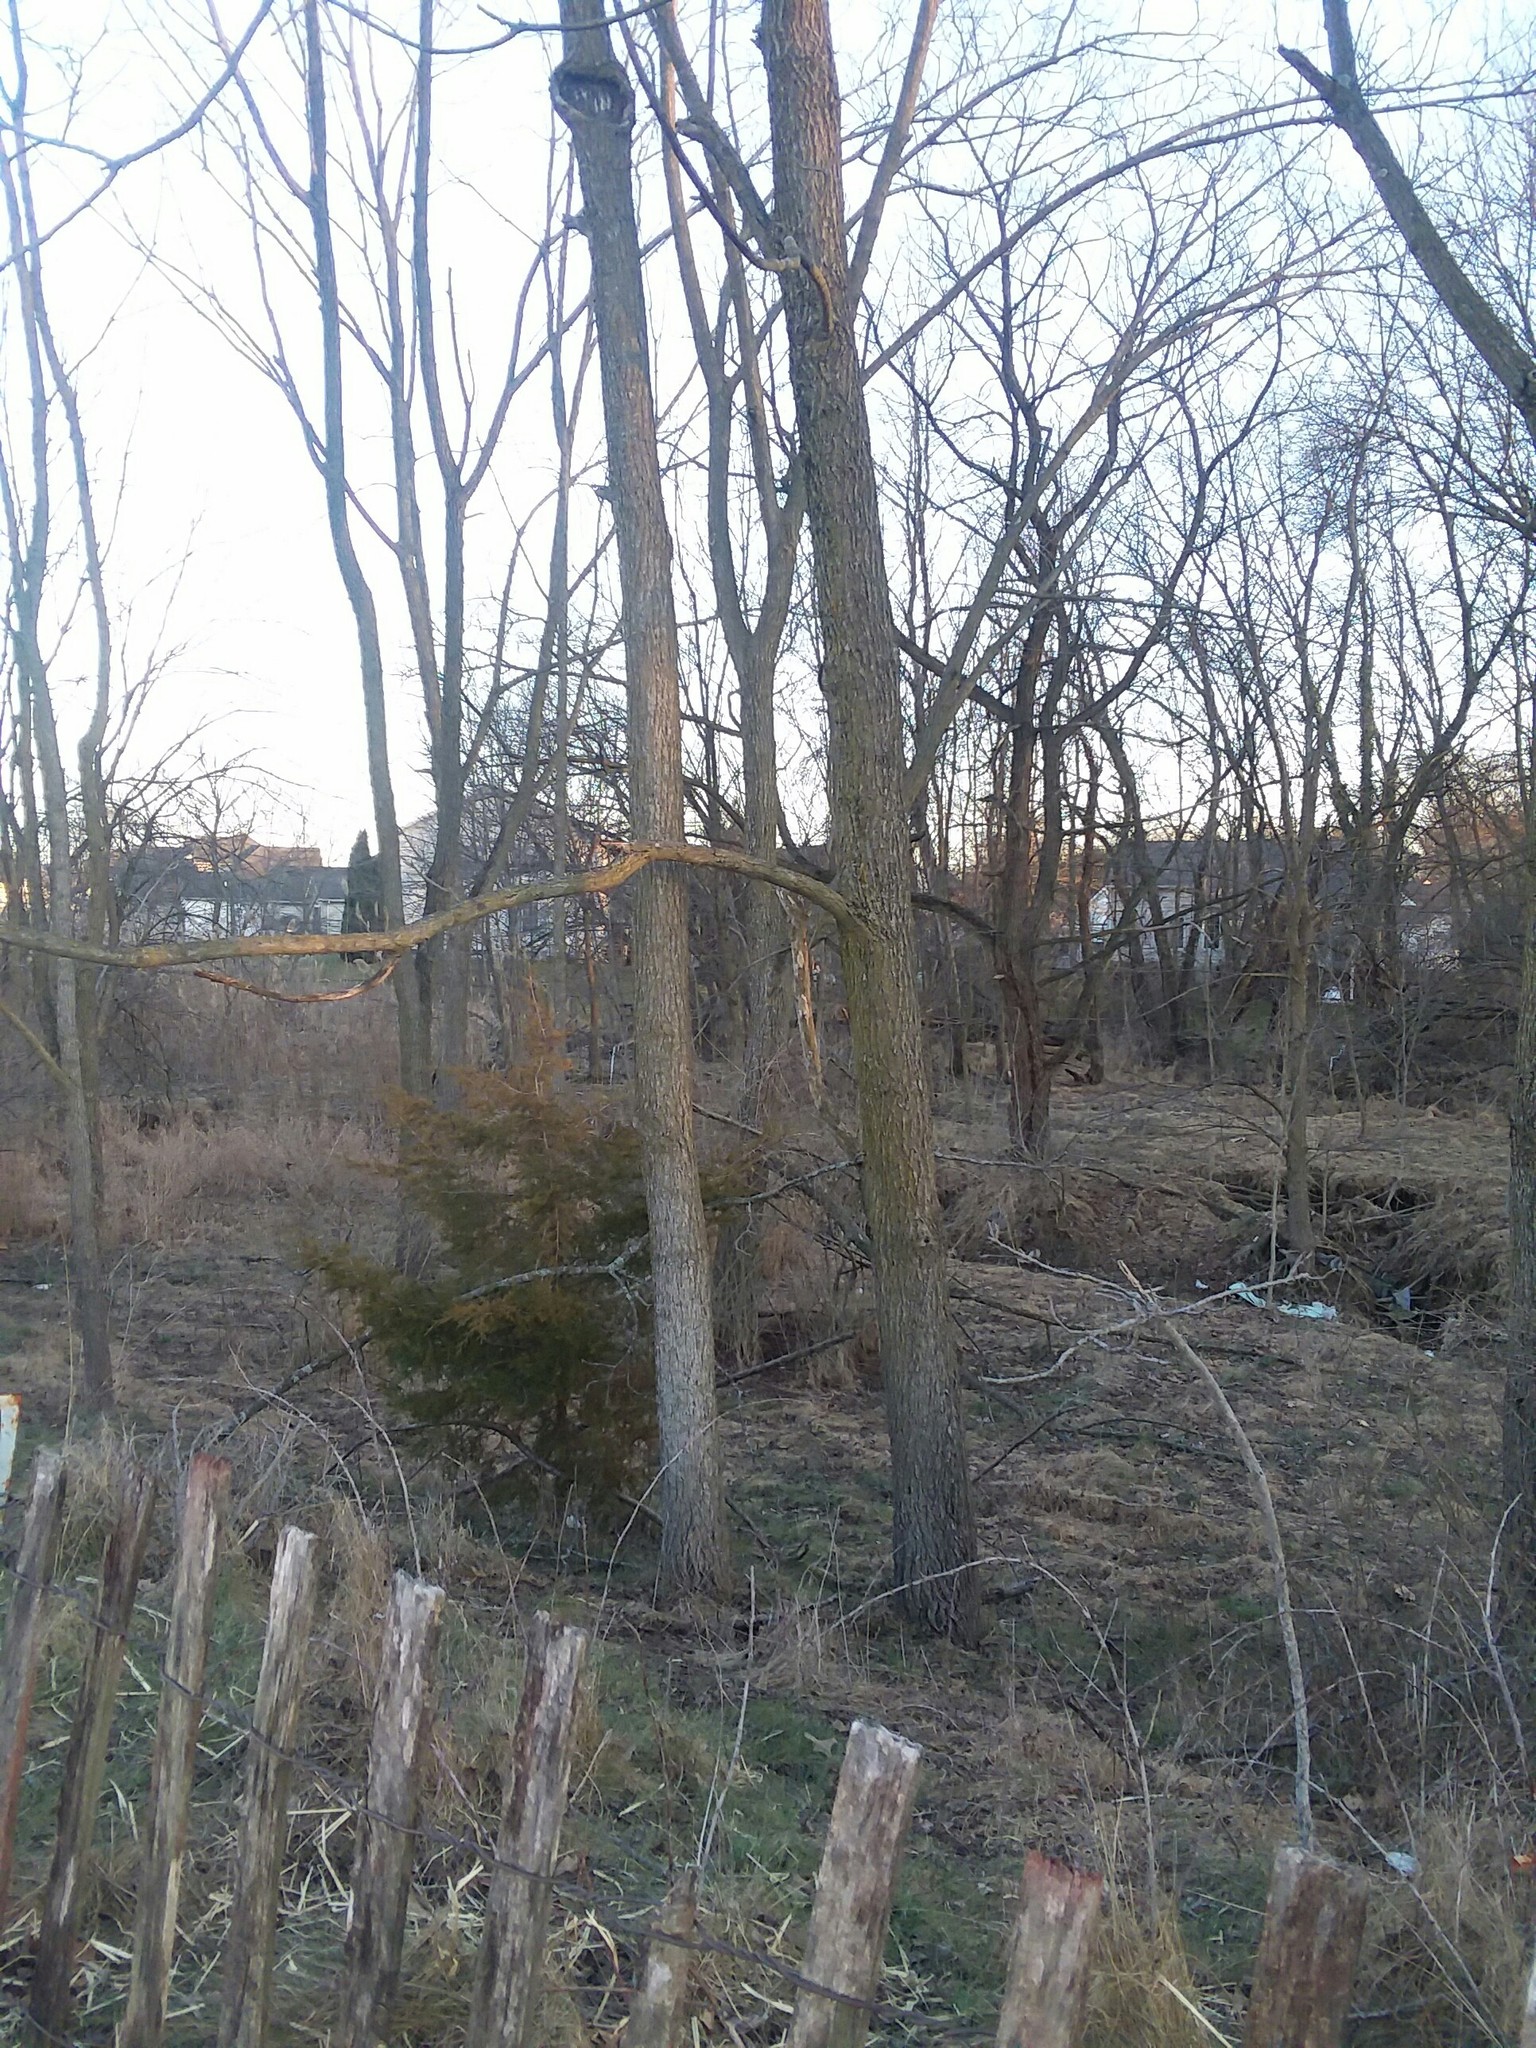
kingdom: Plantae
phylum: Tracheophyta
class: Magnoliopsida
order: Fagales
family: Juglandaceae
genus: Juglans
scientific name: Juglans nigra
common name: Black walnut
